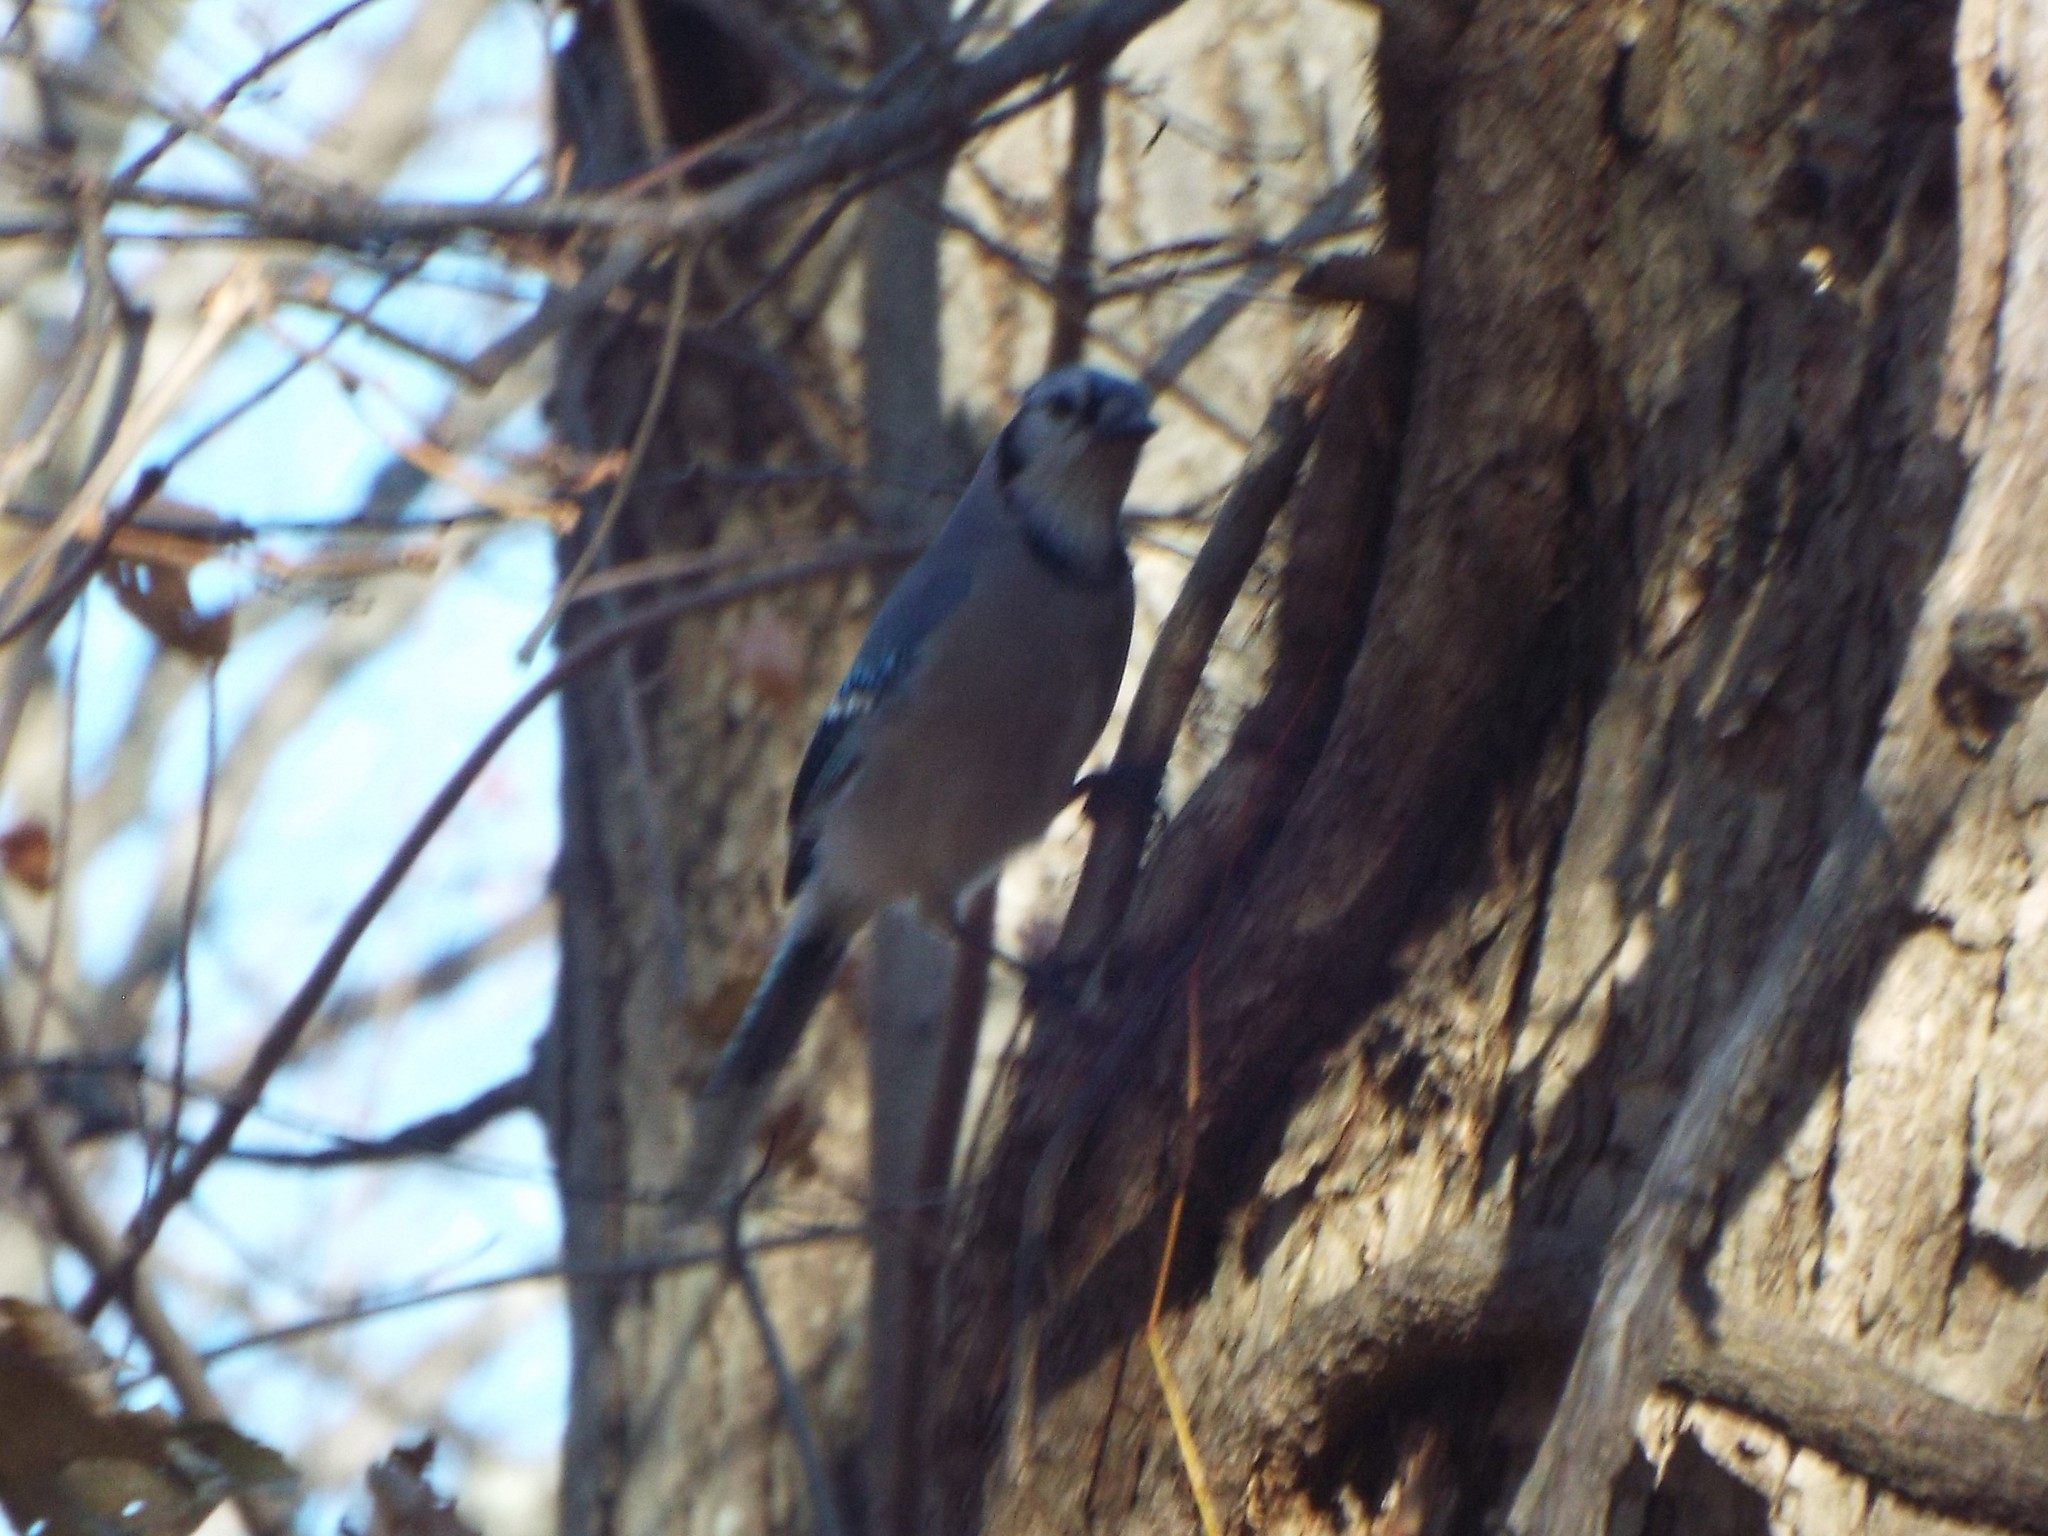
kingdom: Animalia
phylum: Chordata
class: Aves
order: Passeriformes
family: Corvidae
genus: Cyanocitta
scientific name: Cyanocitta cristata
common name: Blue jay
